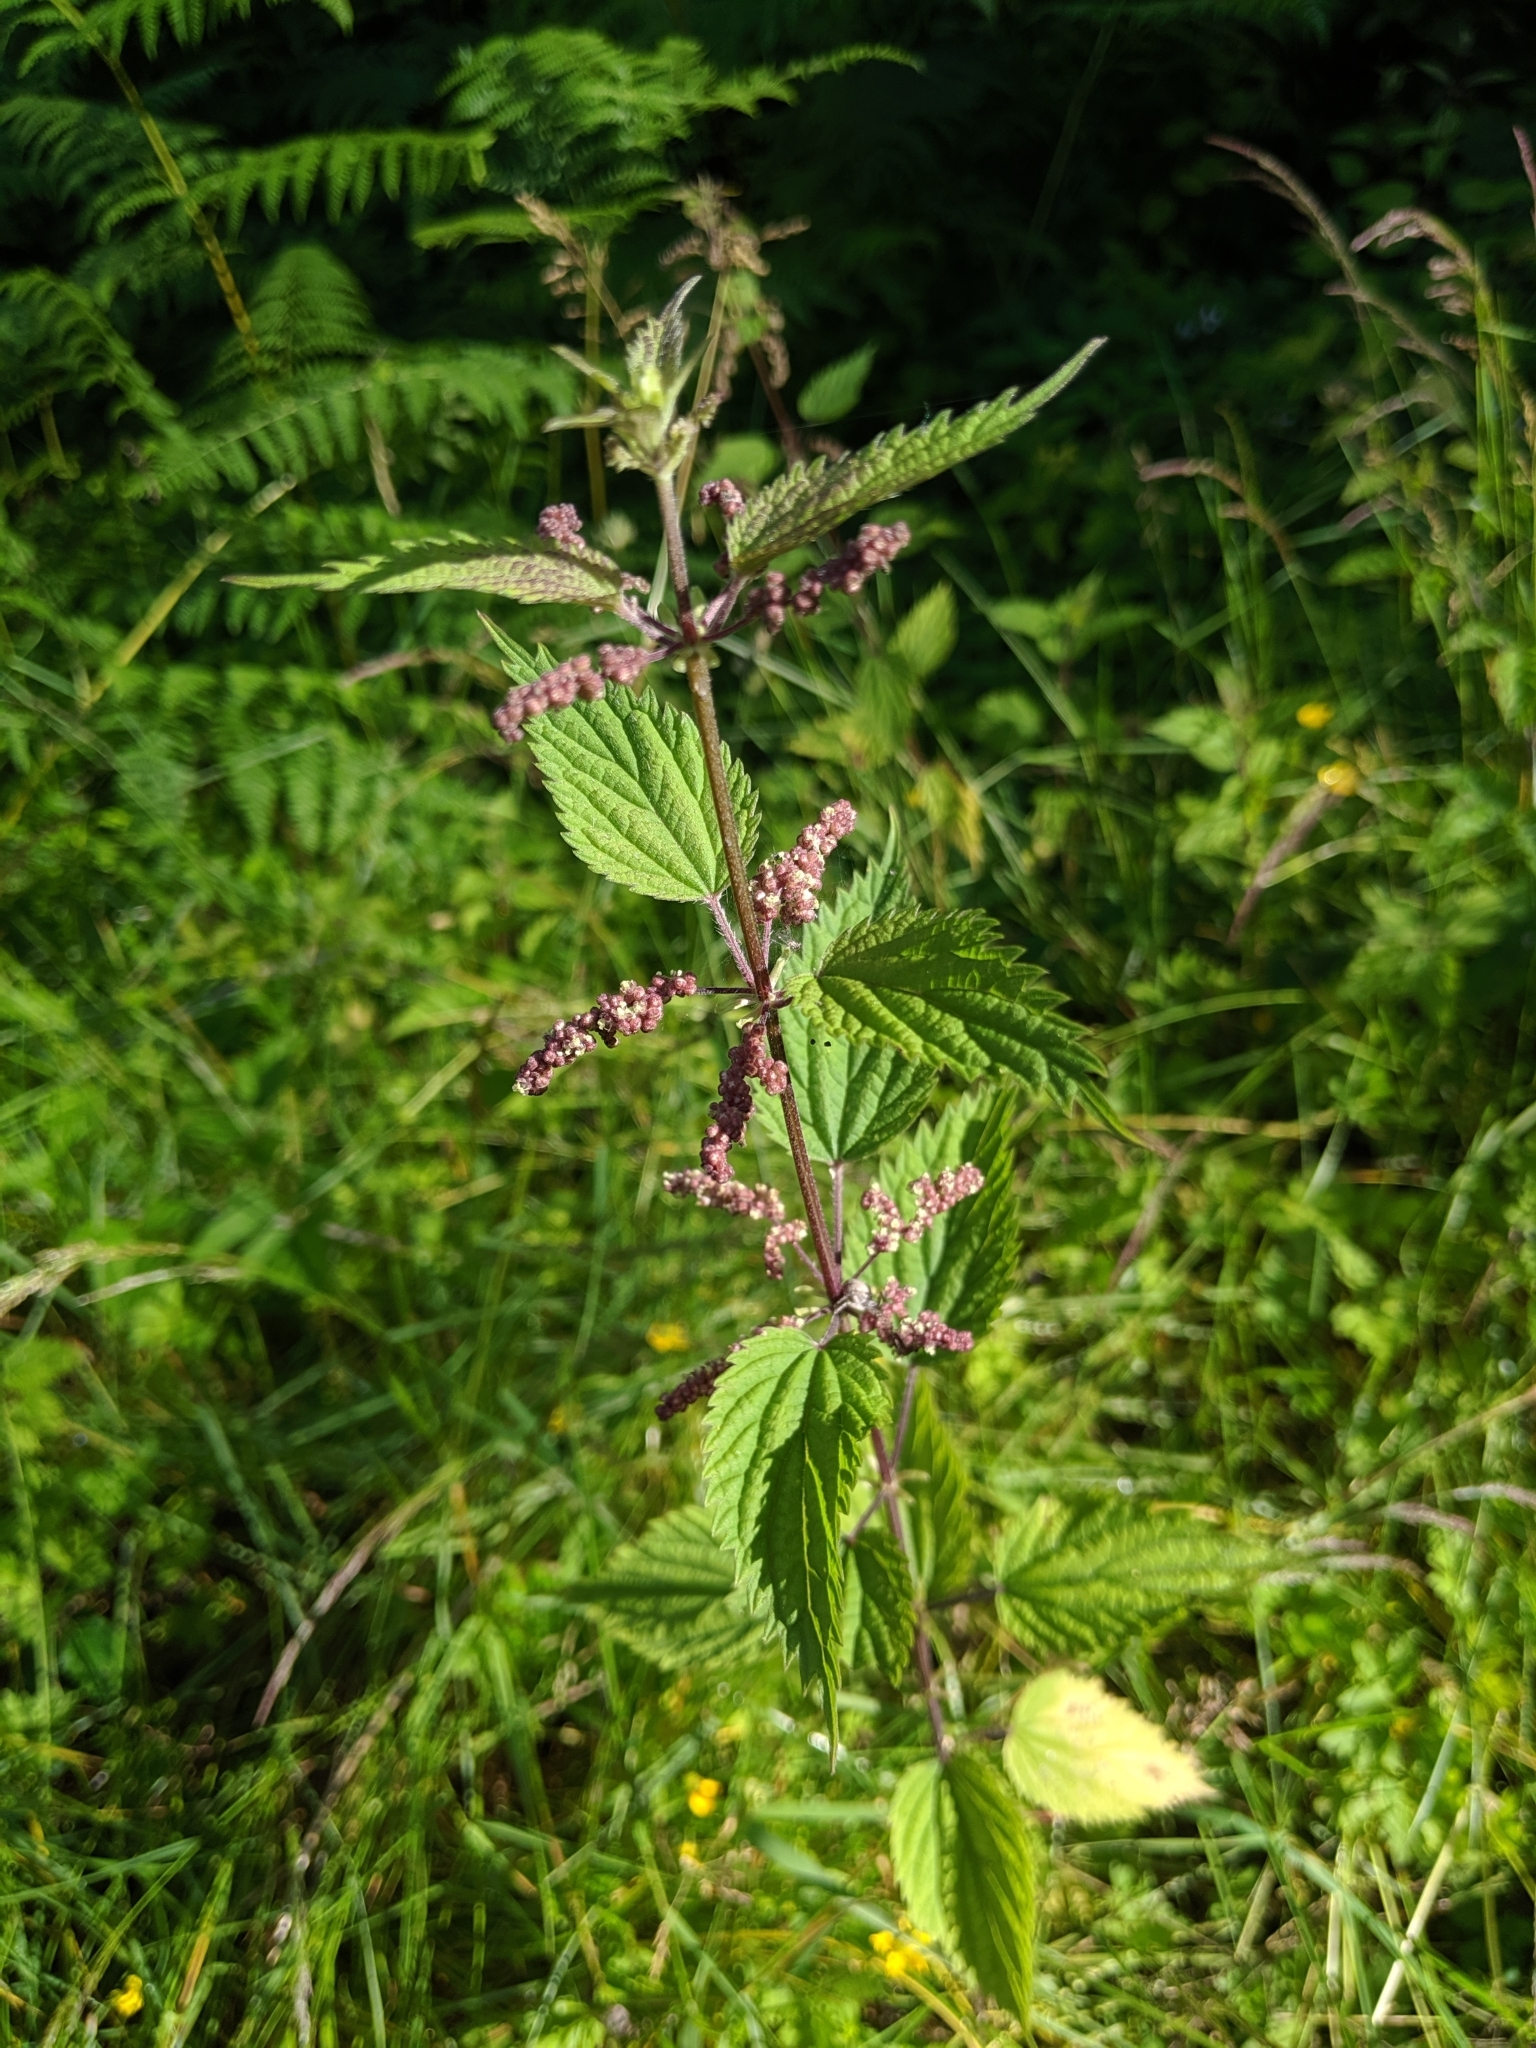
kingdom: Plantae
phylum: Tracheophyta
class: Magnoliopsida
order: Rosales
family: Urticaceae
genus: Urtica
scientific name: Urtica dioica
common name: Common nettle
